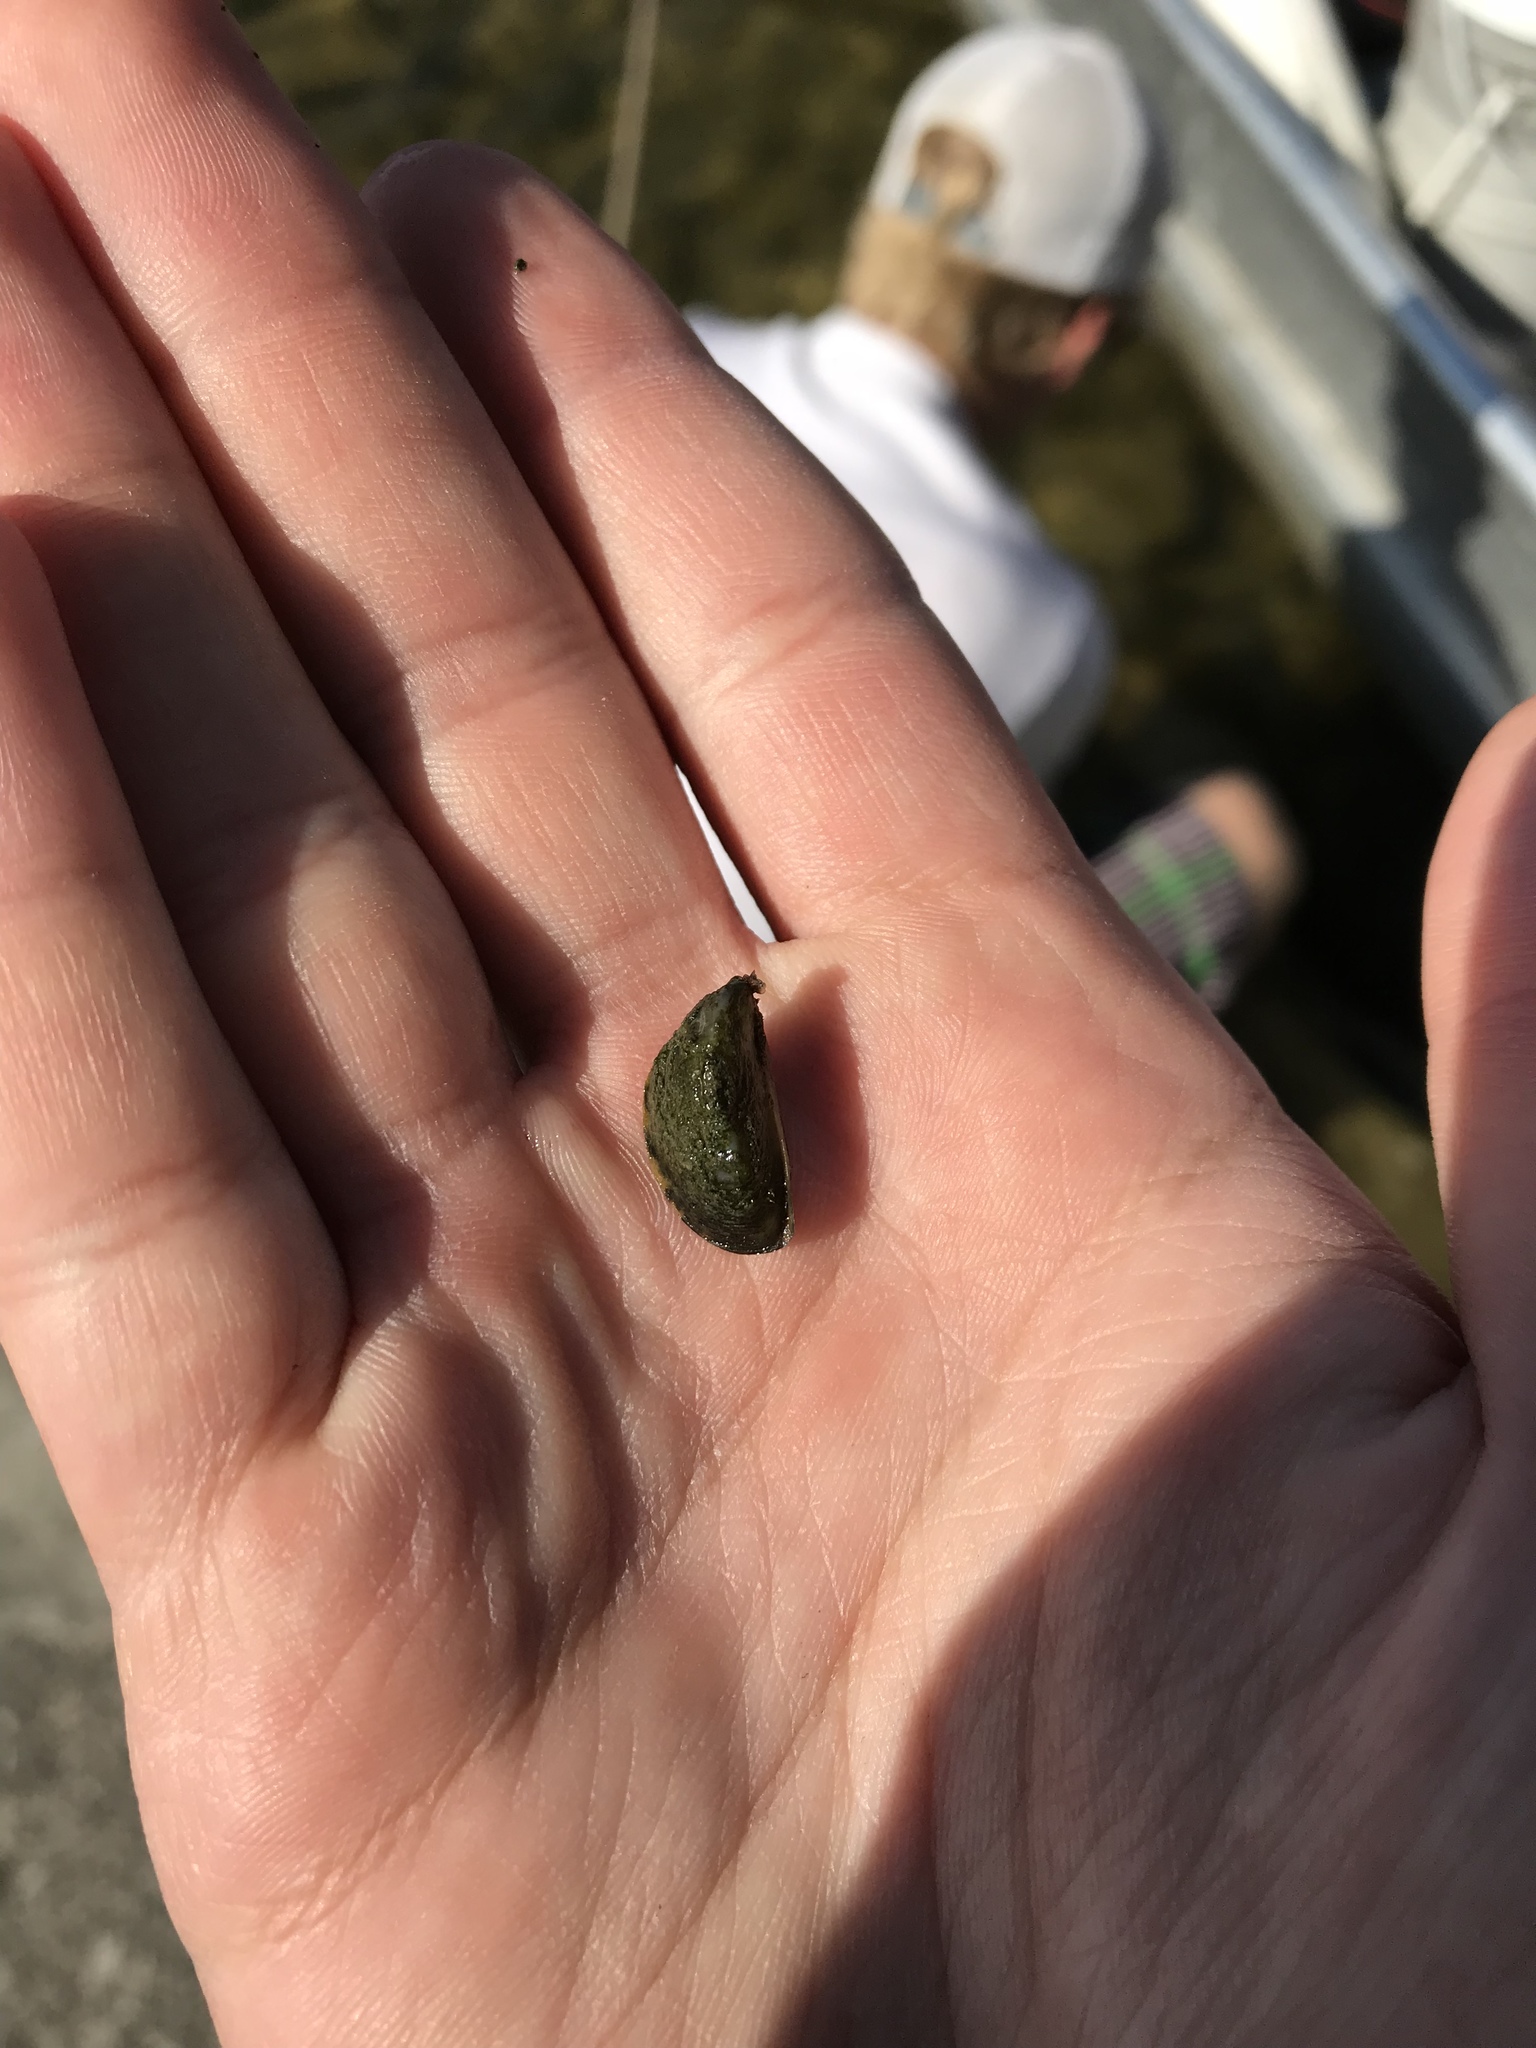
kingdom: Animalia
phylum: Mollusca
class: Bivalvia
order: Myida
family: Dreissenidae
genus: Dreissena
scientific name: Dreissena polymorpha
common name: Zebra mussel
